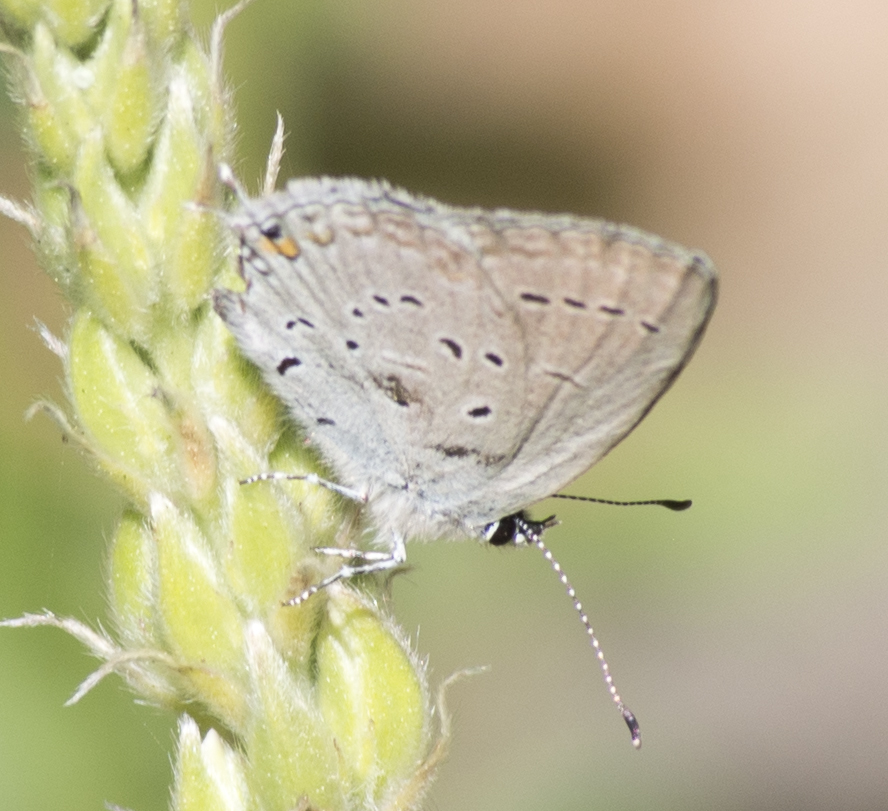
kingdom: Animalia
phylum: Arthropoda
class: Insecta
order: Lepidoptera
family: Lycaenidae
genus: Elkalyce
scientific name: Elkalyce amyntula
